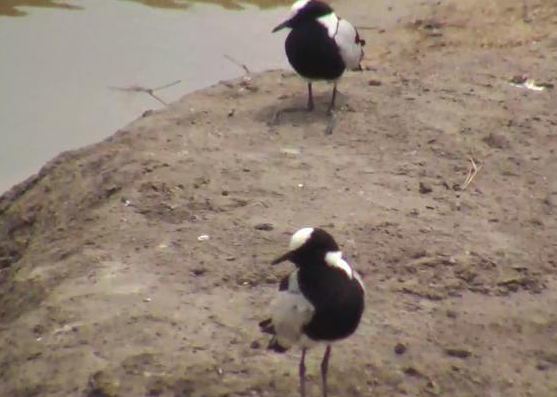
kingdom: Animalia
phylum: Chordata
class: Aves
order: Charadriiformes
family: Charadriidae
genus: Vanellus
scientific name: Vanellus armatus
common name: Blacksmith lapwing
